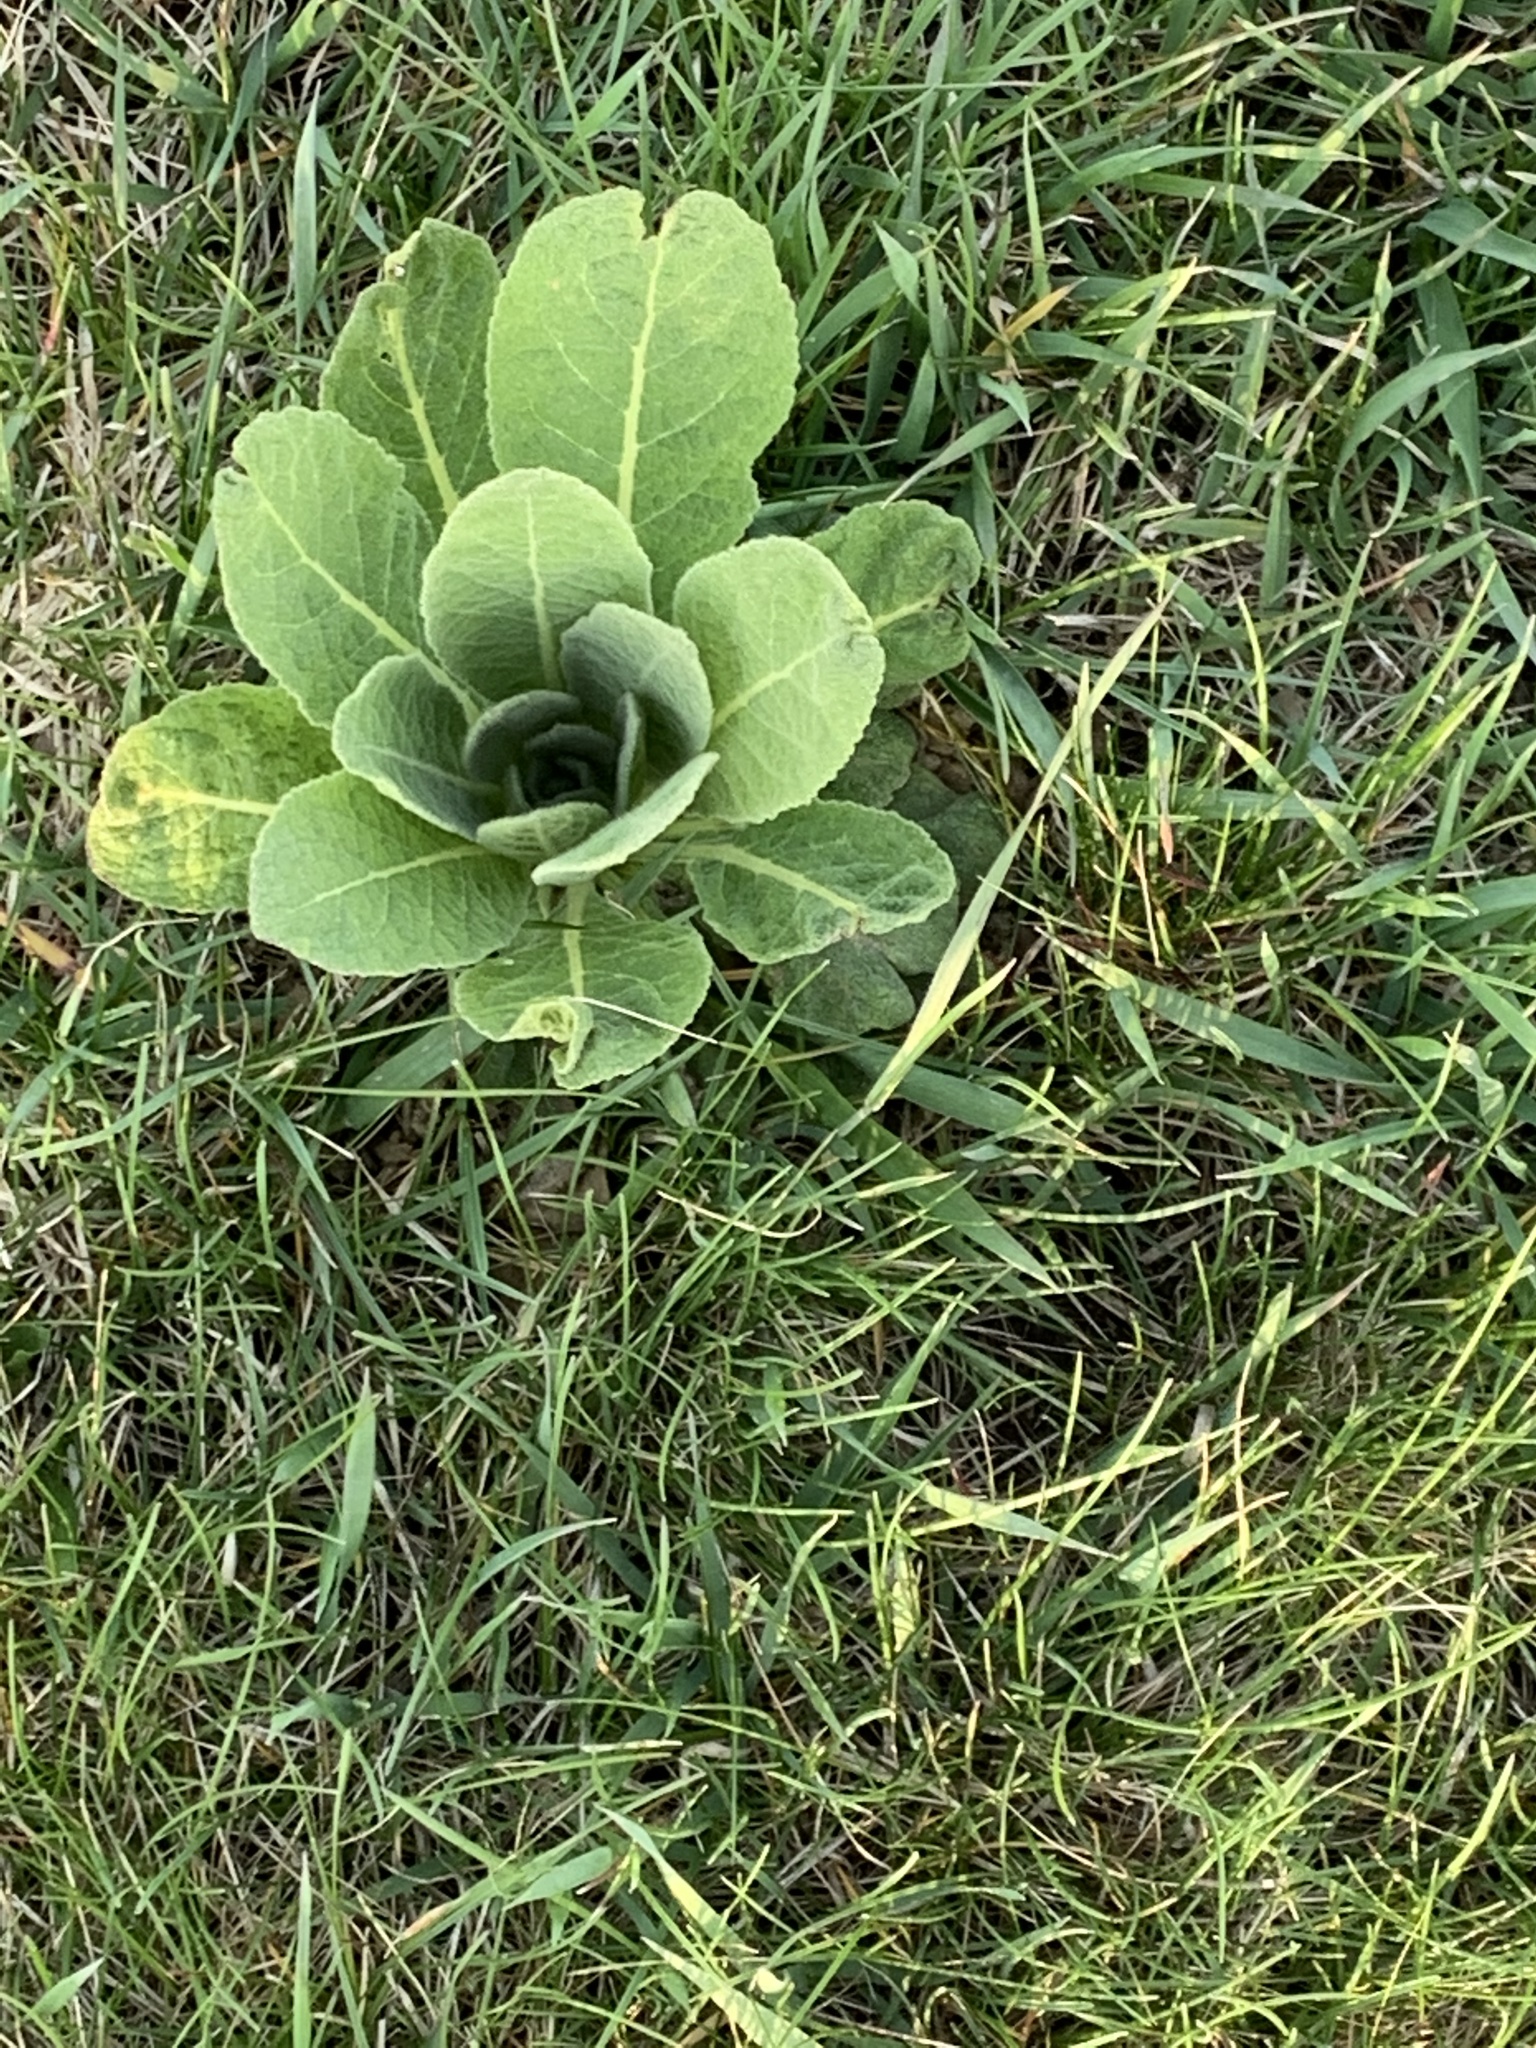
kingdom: Plantae
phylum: Tracheophyta
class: Magnoliopsida
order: Lamiales
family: Scrophulariaceae
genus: Verbascum
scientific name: Verbascum thapsus
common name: Common mullein
